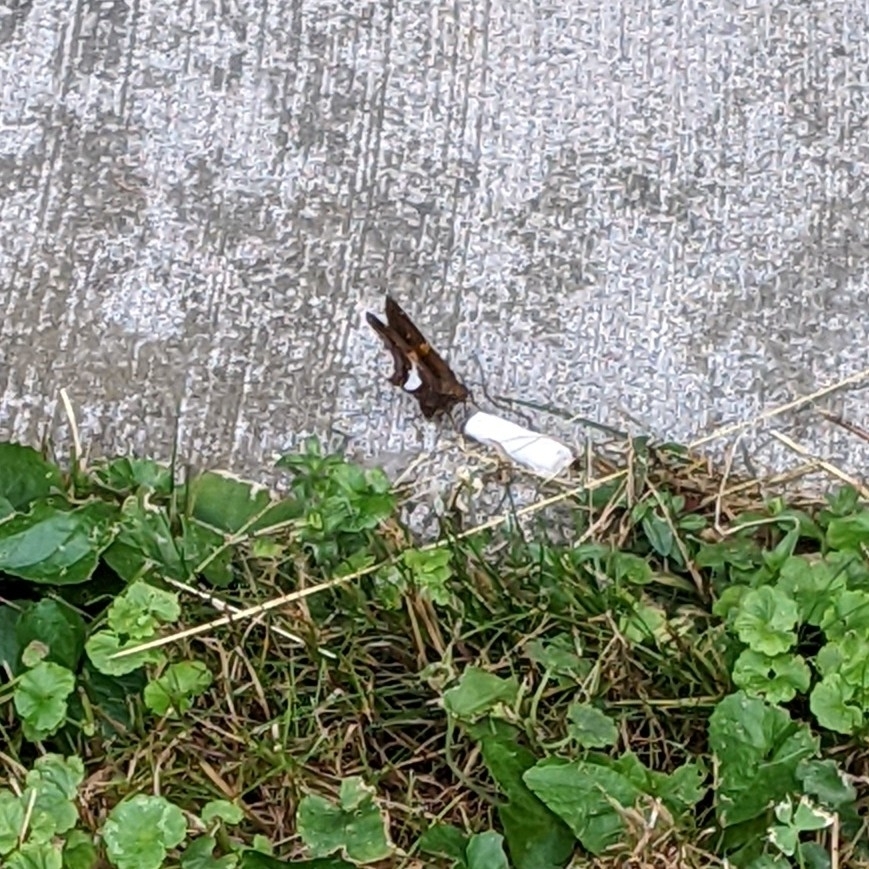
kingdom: Animalia
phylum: Arthropoda
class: Insecta
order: Lepidoptera
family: Hesperiidae
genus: Epargyreus
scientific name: Epargyreus clarus
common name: Silver-spotted skipper
